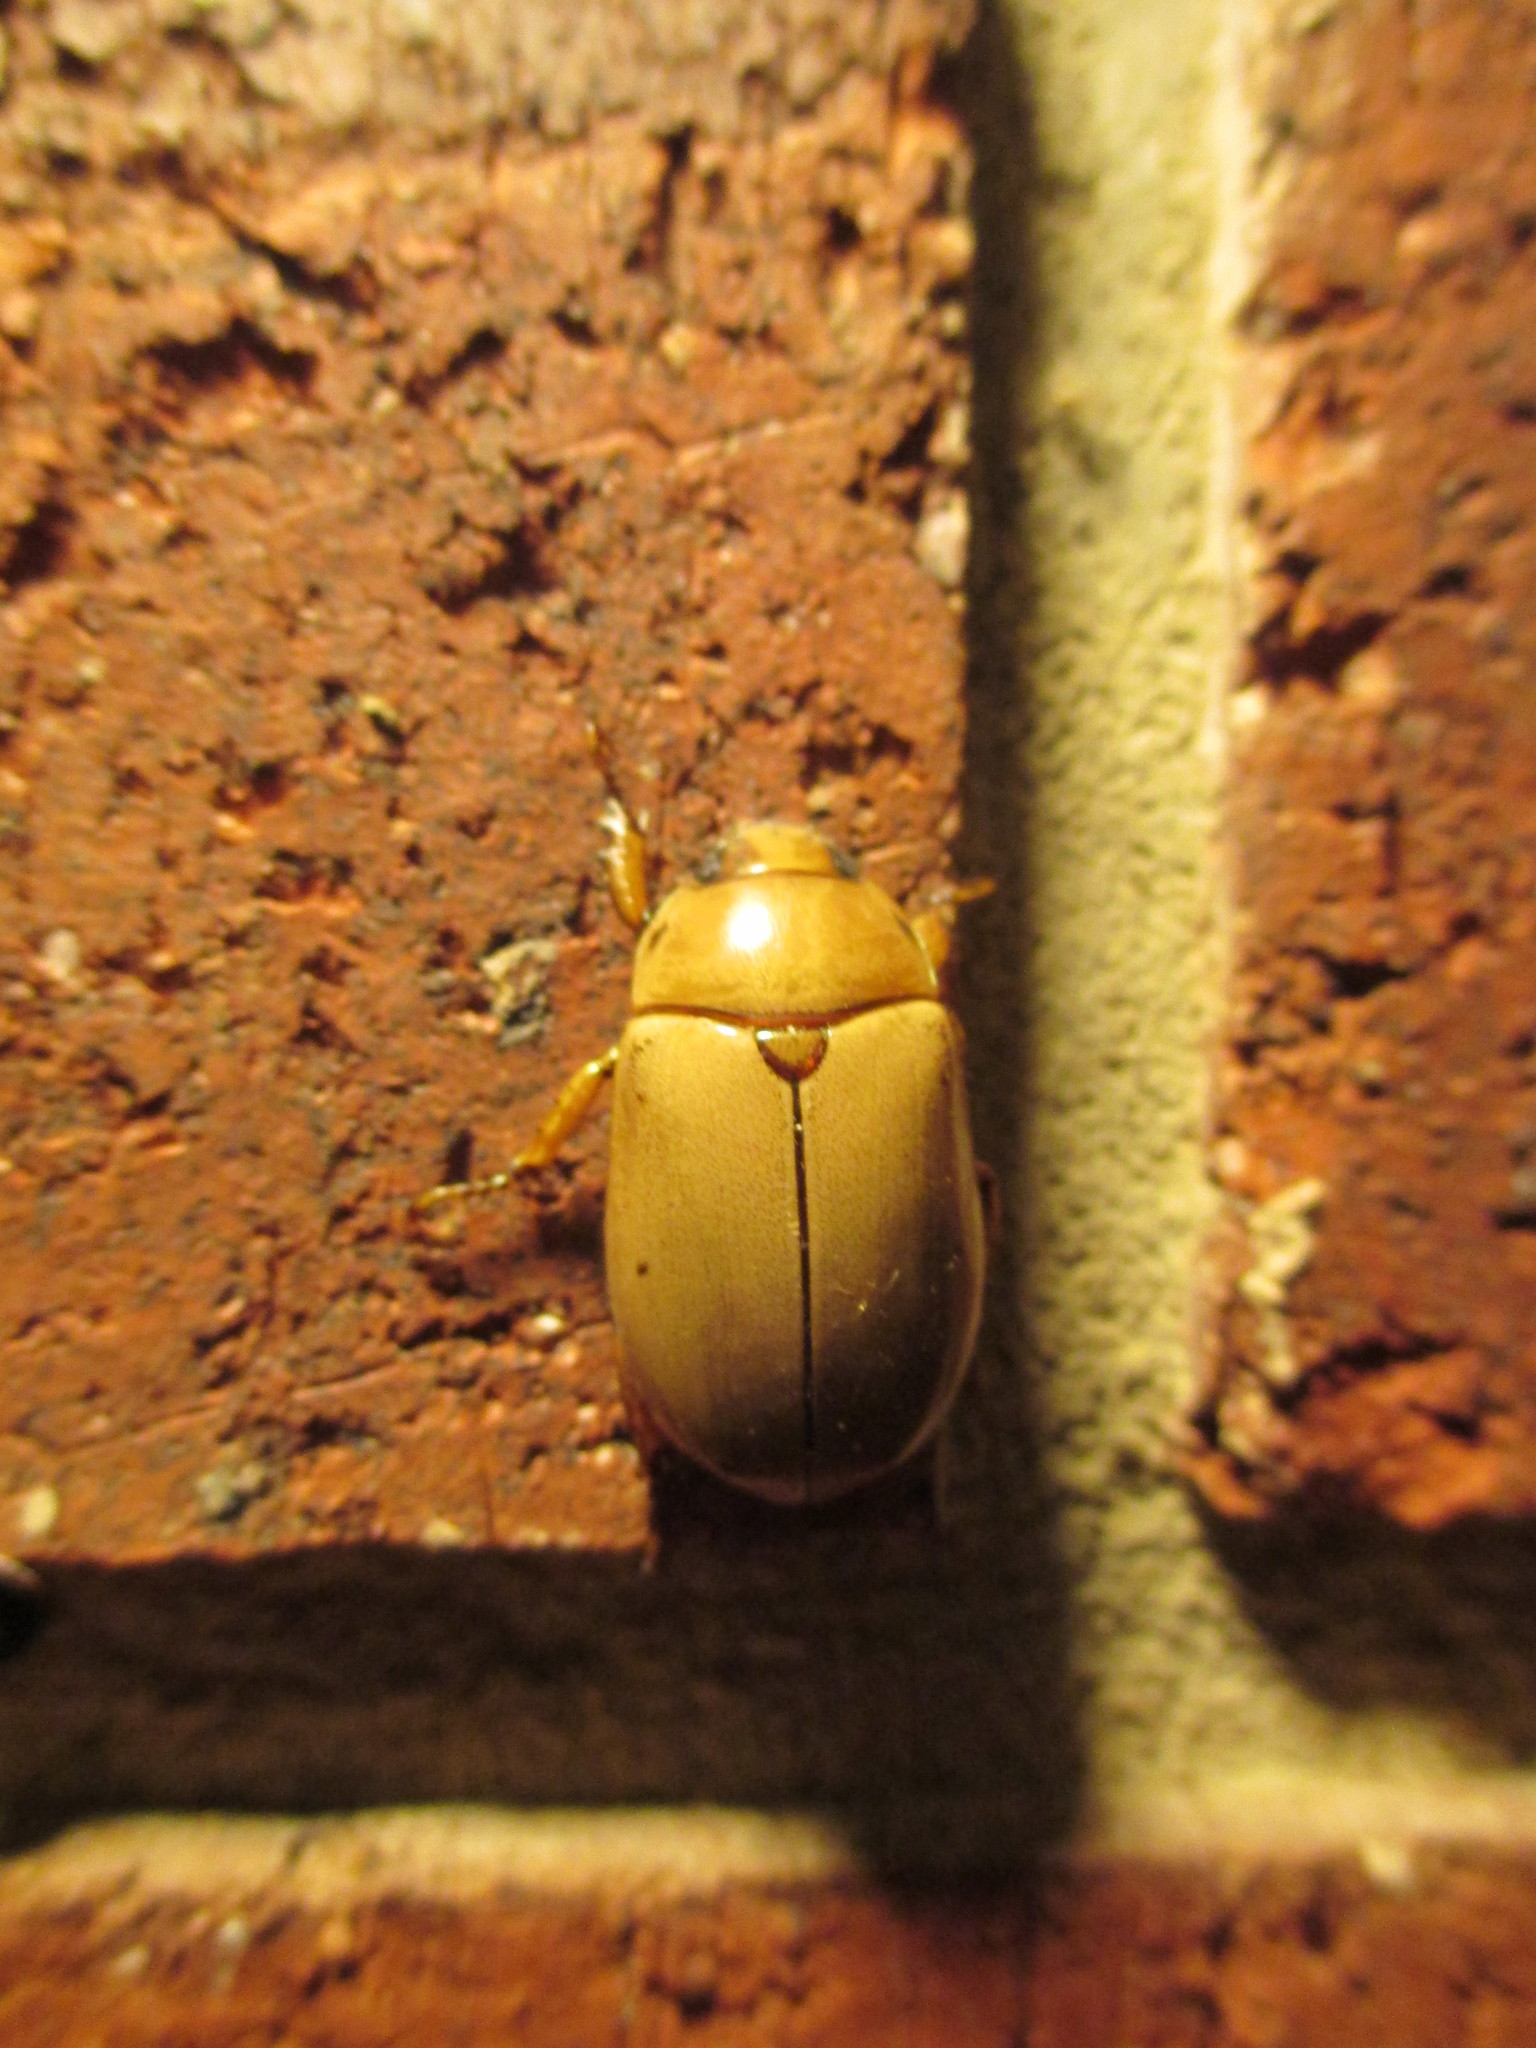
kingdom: Animalia
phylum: Arthropoda
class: Insecta
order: Coleoptera
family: Scarabaeidae
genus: Pelidnota
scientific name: Pelidnota punctata
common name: Grapevine beetle
